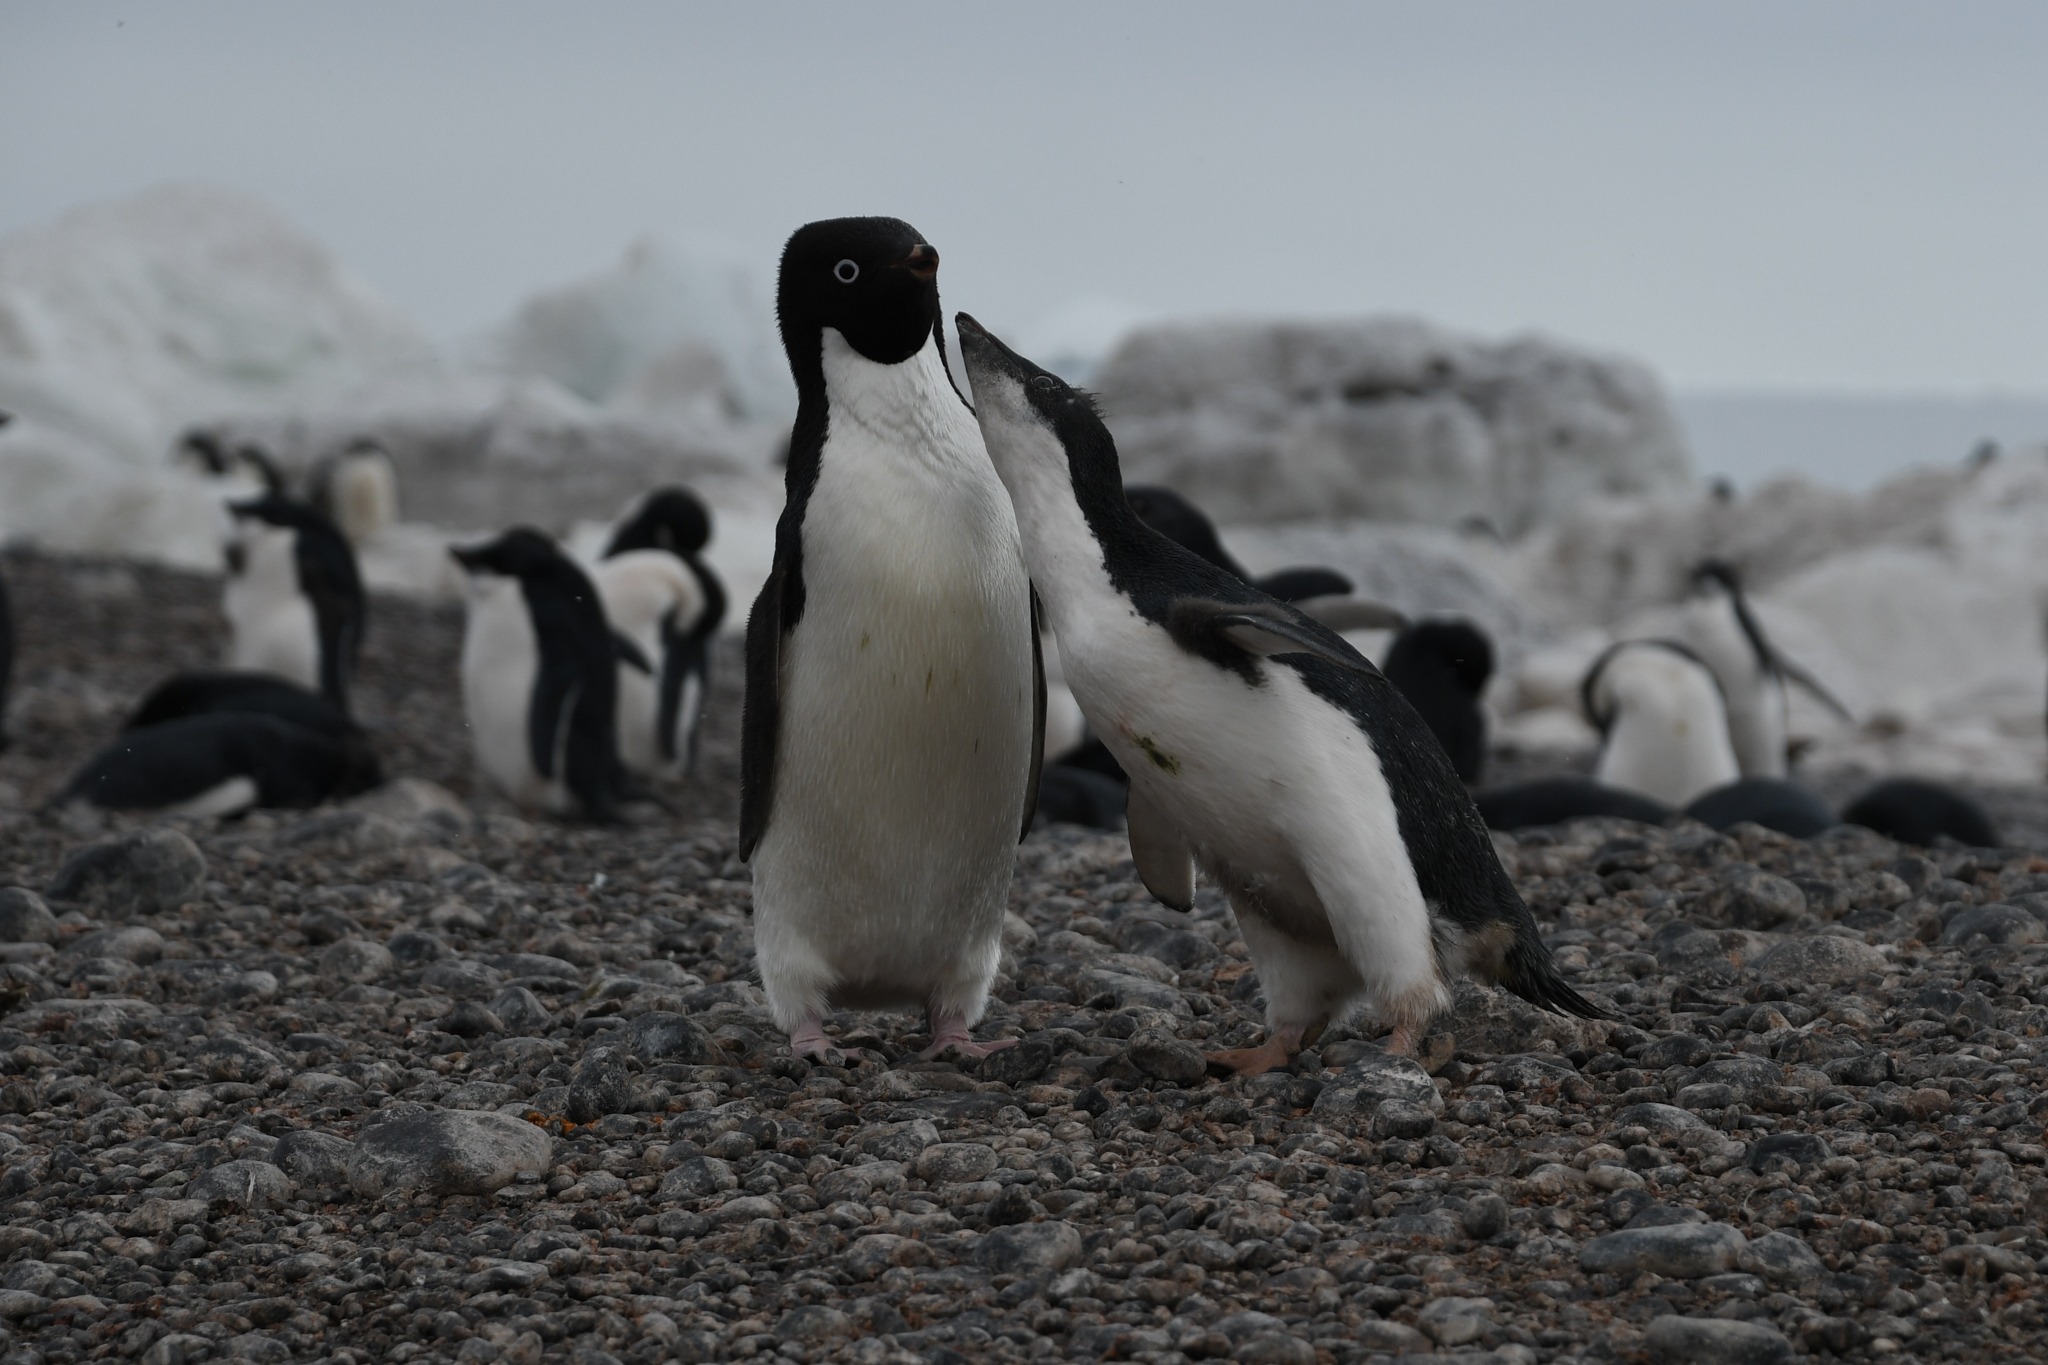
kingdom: Animalia
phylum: Chordata
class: Aves
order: Sphenisciformes
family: Spheniscidae
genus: Pygoscelis
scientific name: Pygoscelis adeliae
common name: Adelie penguin
